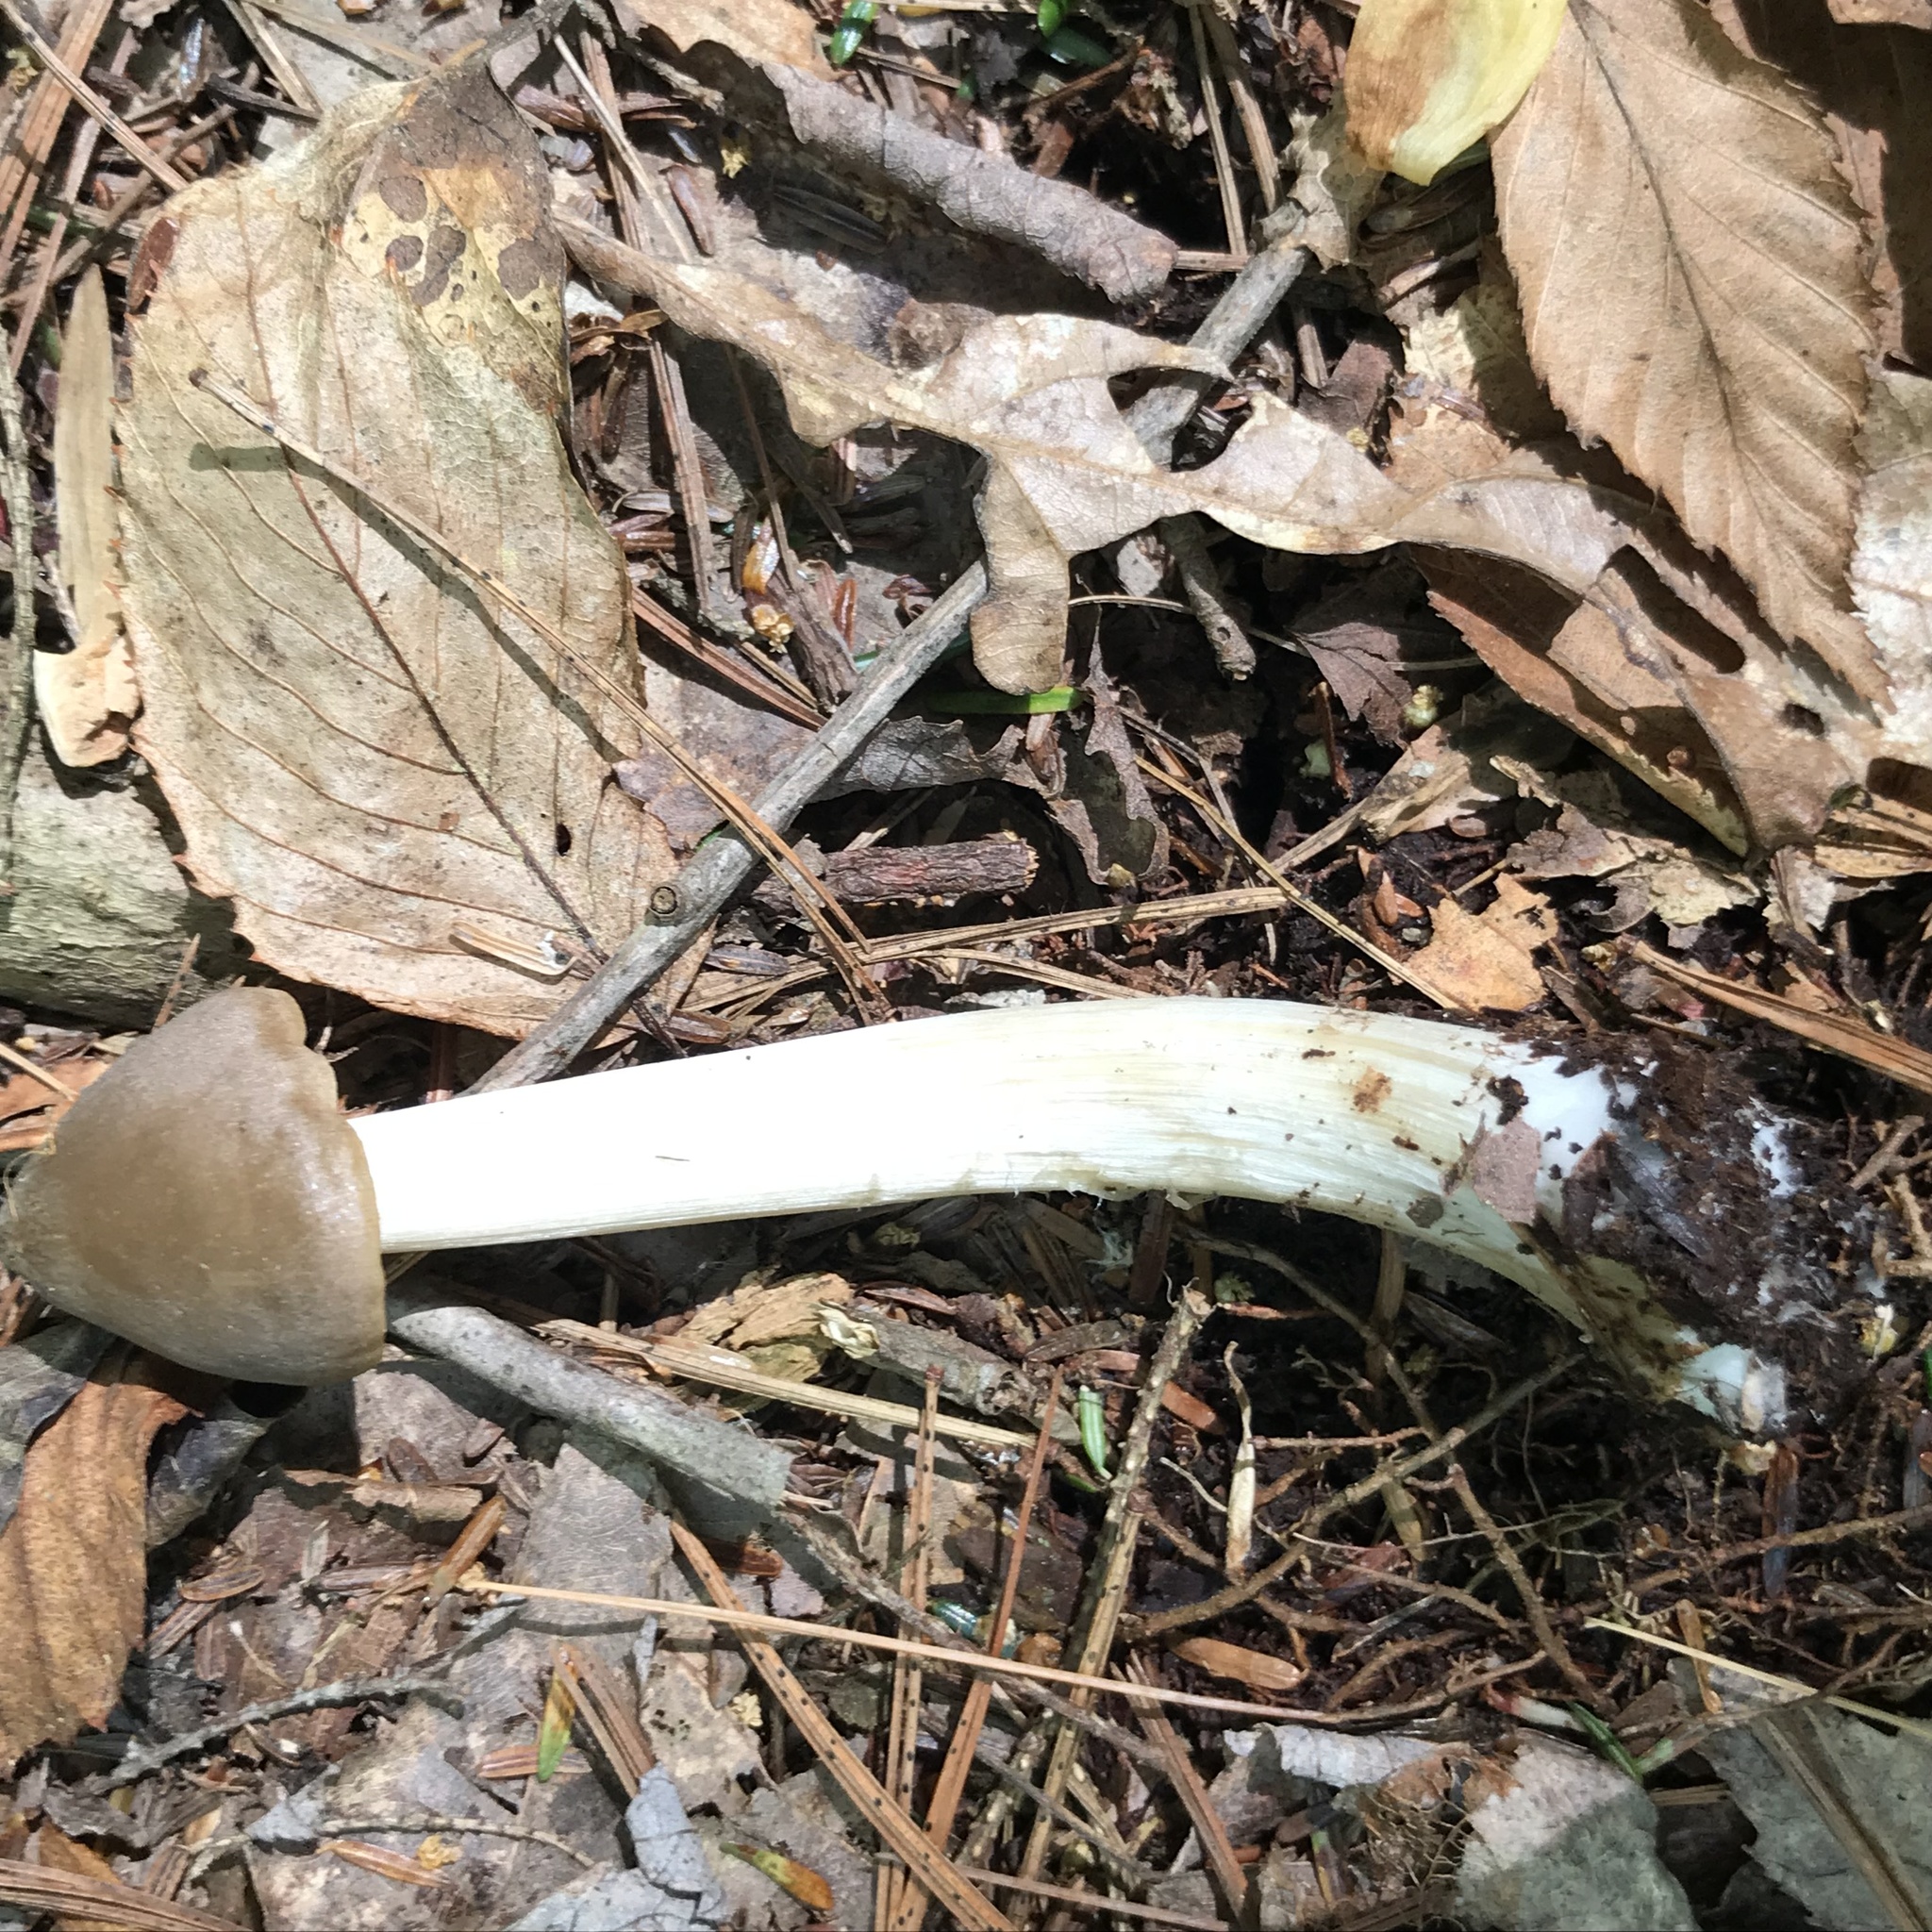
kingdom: Fungi
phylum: Basidiomycota
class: Agaricomycetes
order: Agaricales
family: Entolomataceae
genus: Entoloma
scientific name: Entoloma strictius
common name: Straight-stalked entoloma
